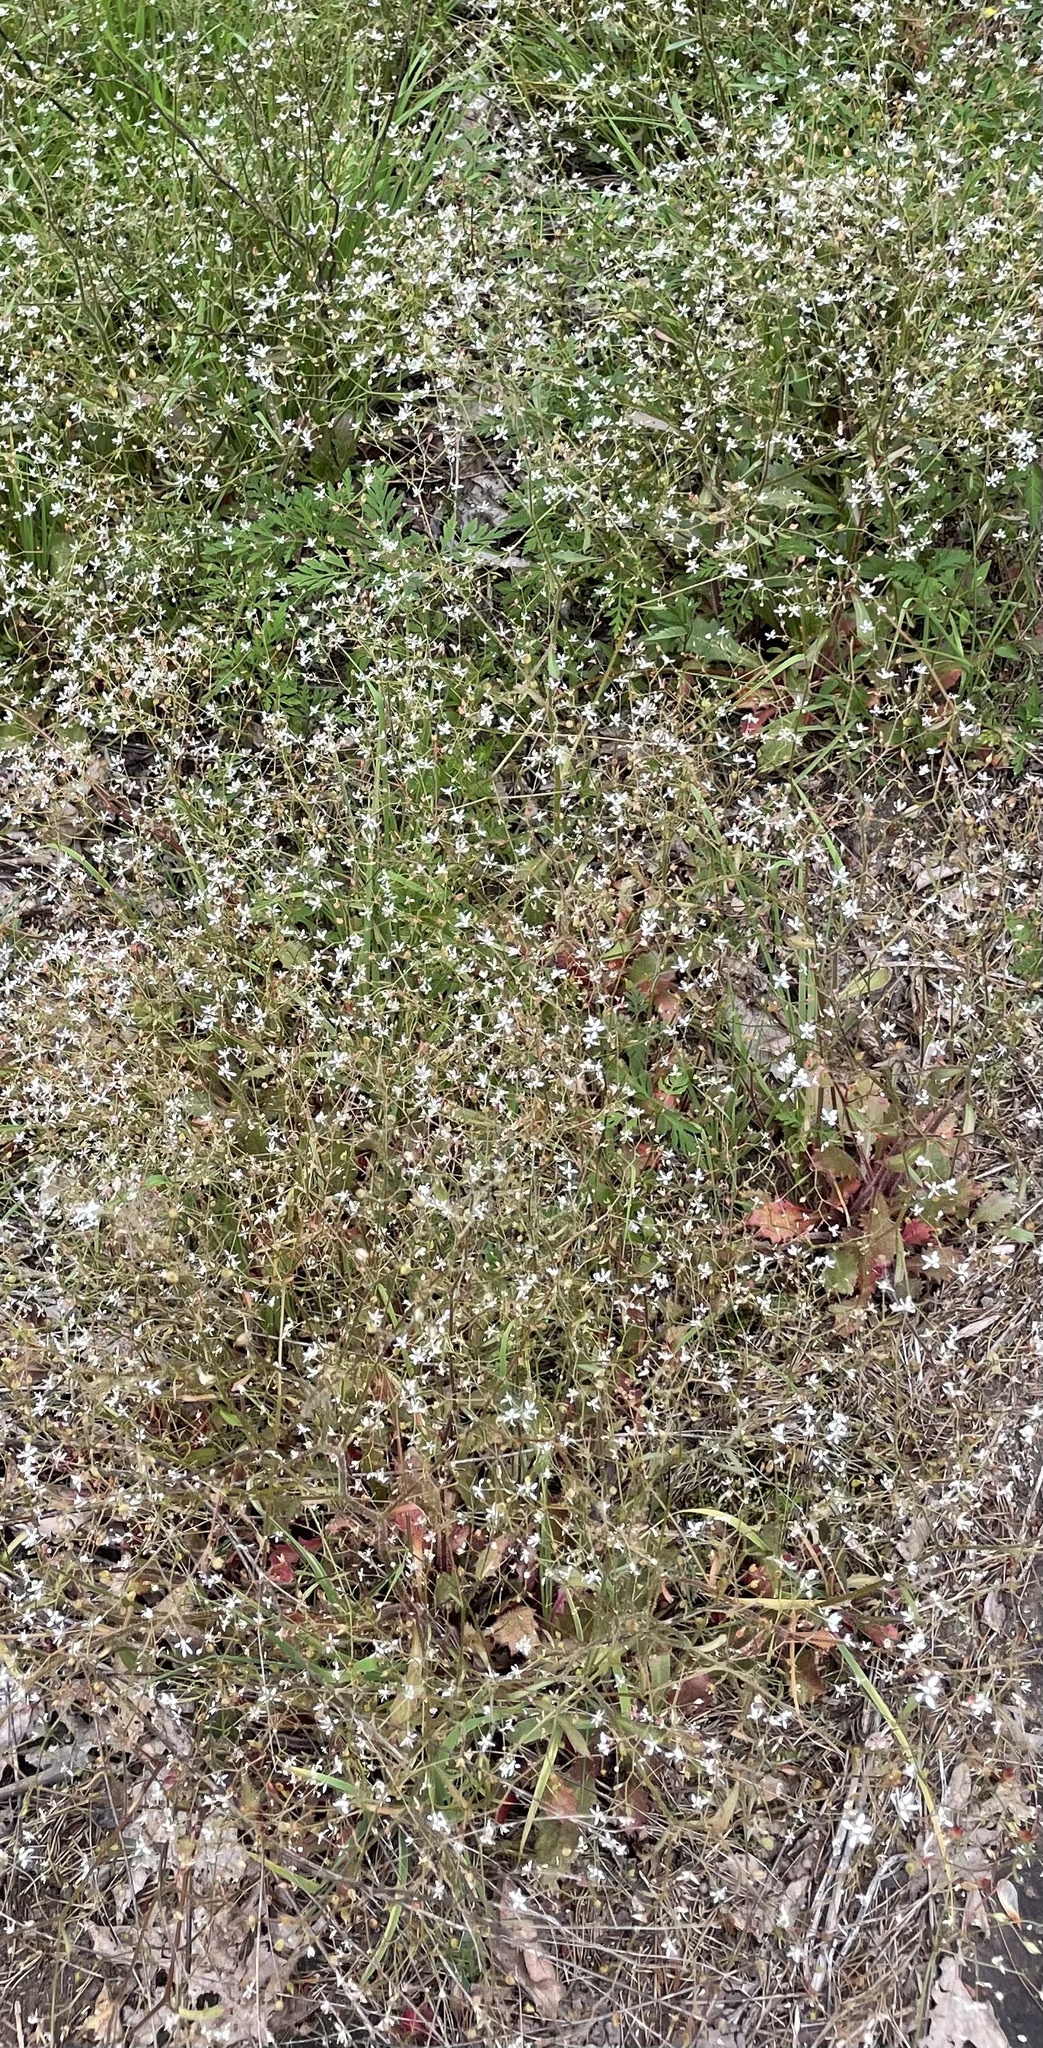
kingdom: Plantae
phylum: Tracheophyta
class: Magnoliopsida
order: Saxifragales
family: Saxifragaceae
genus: Micranthes
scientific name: Micranthes petiolaris
